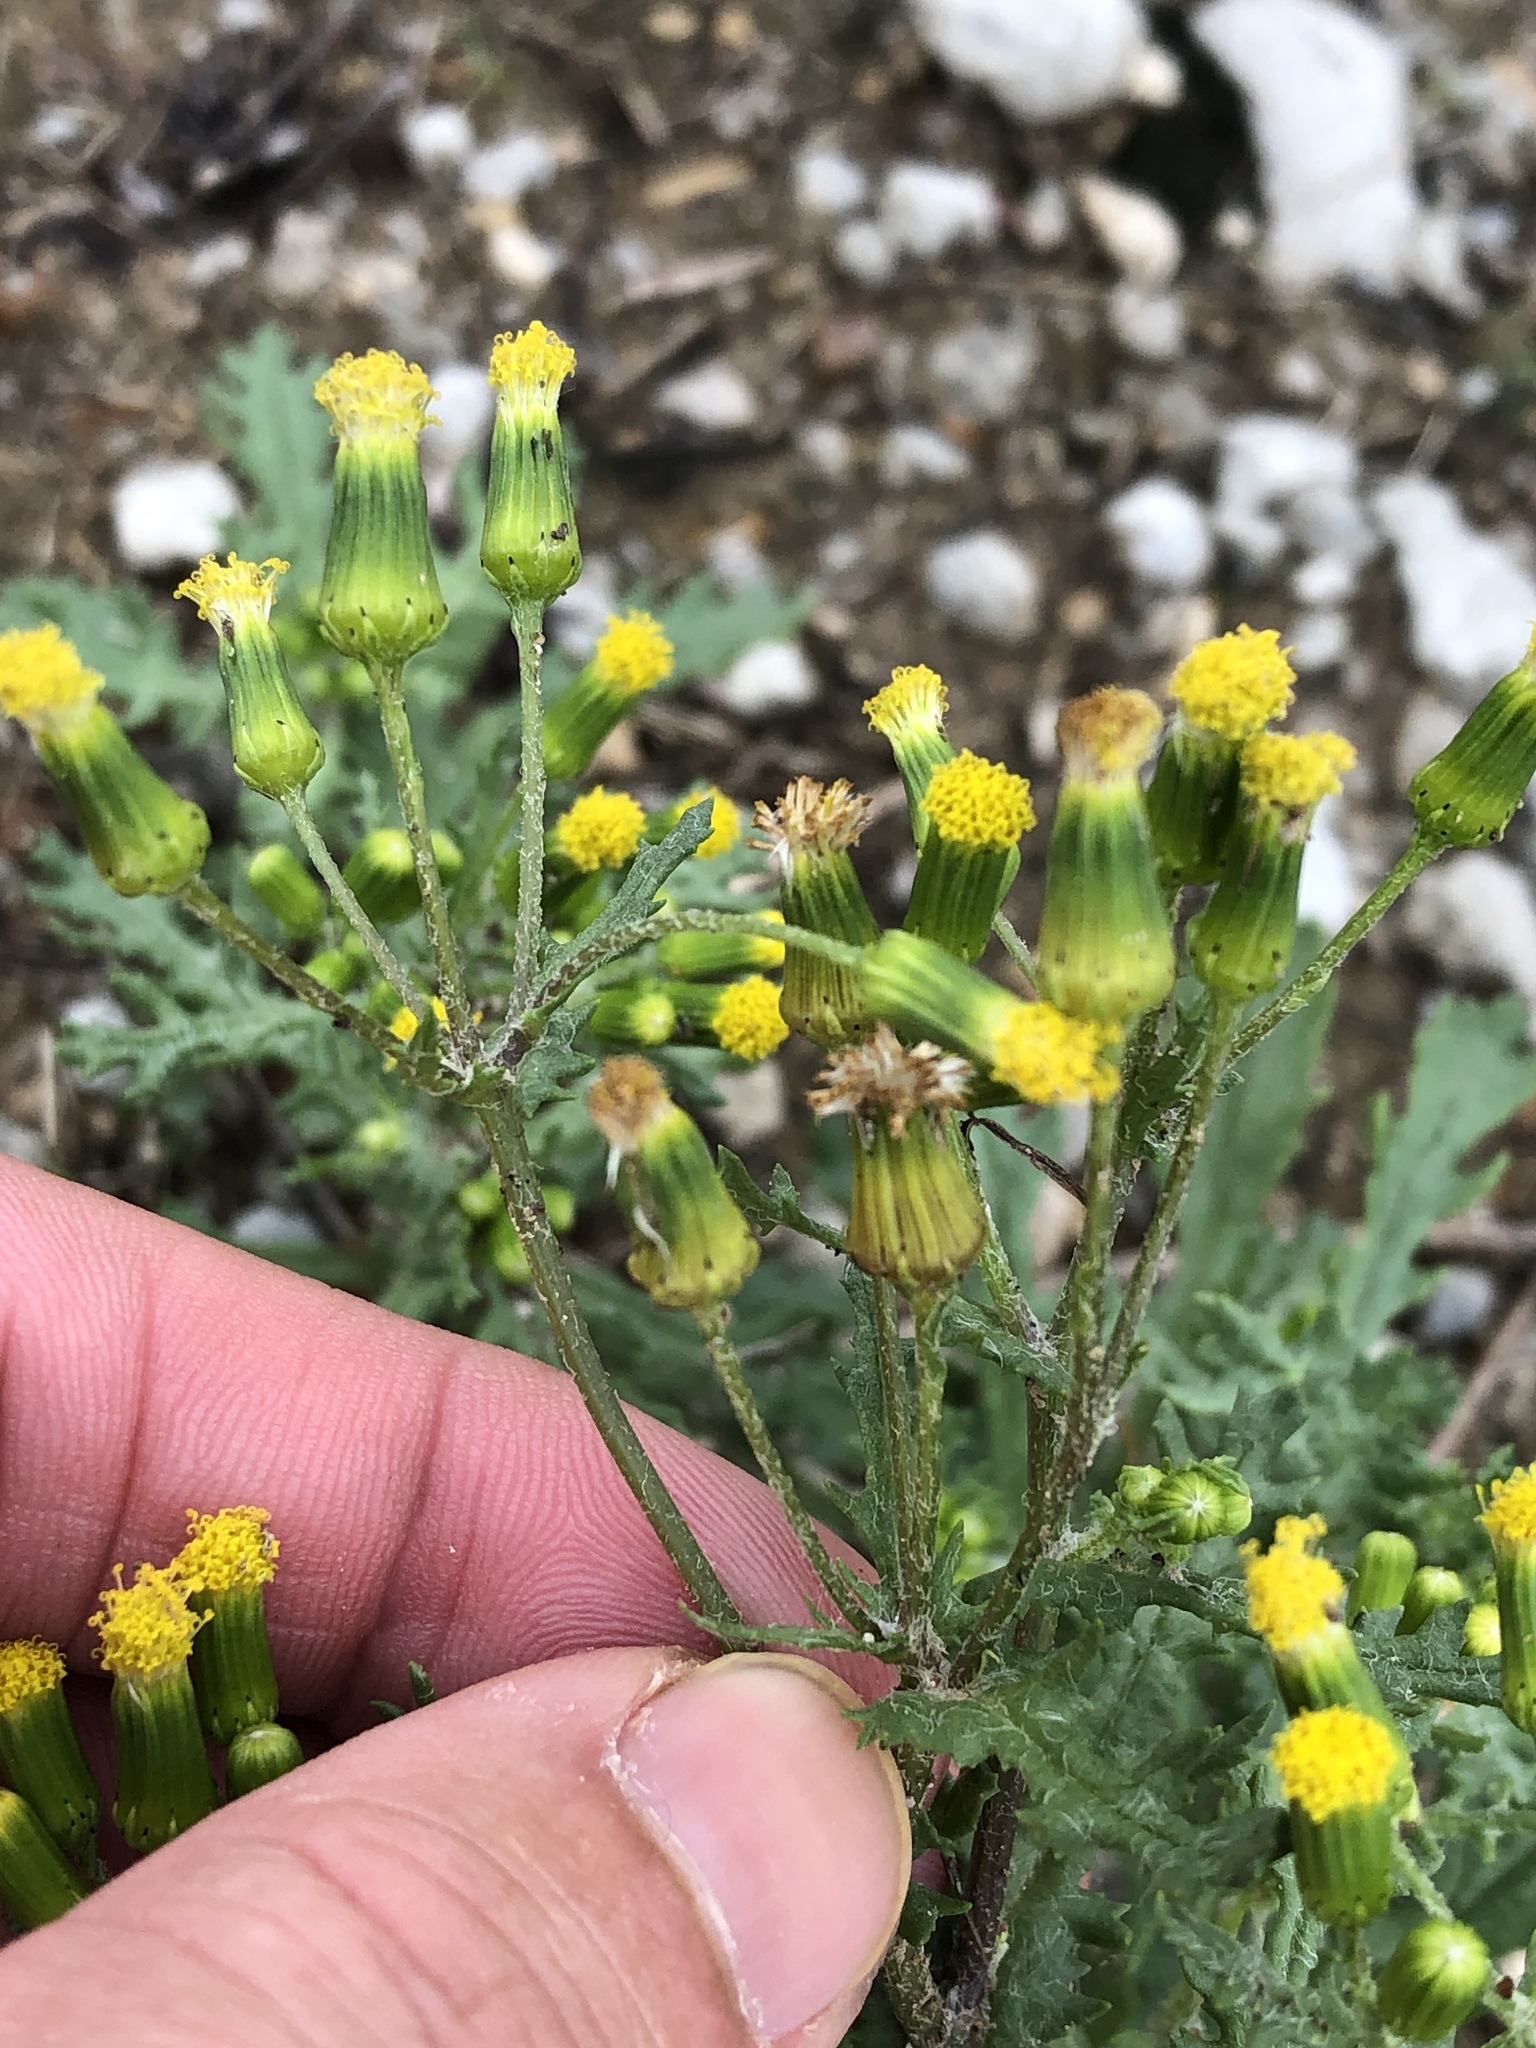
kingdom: Plantae
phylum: Tracheophyta
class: Magnoliopsida
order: Asterales
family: Asteraceae
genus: Senecio
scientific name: Senecio vulgaris
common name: Old-man-in-the-spring
